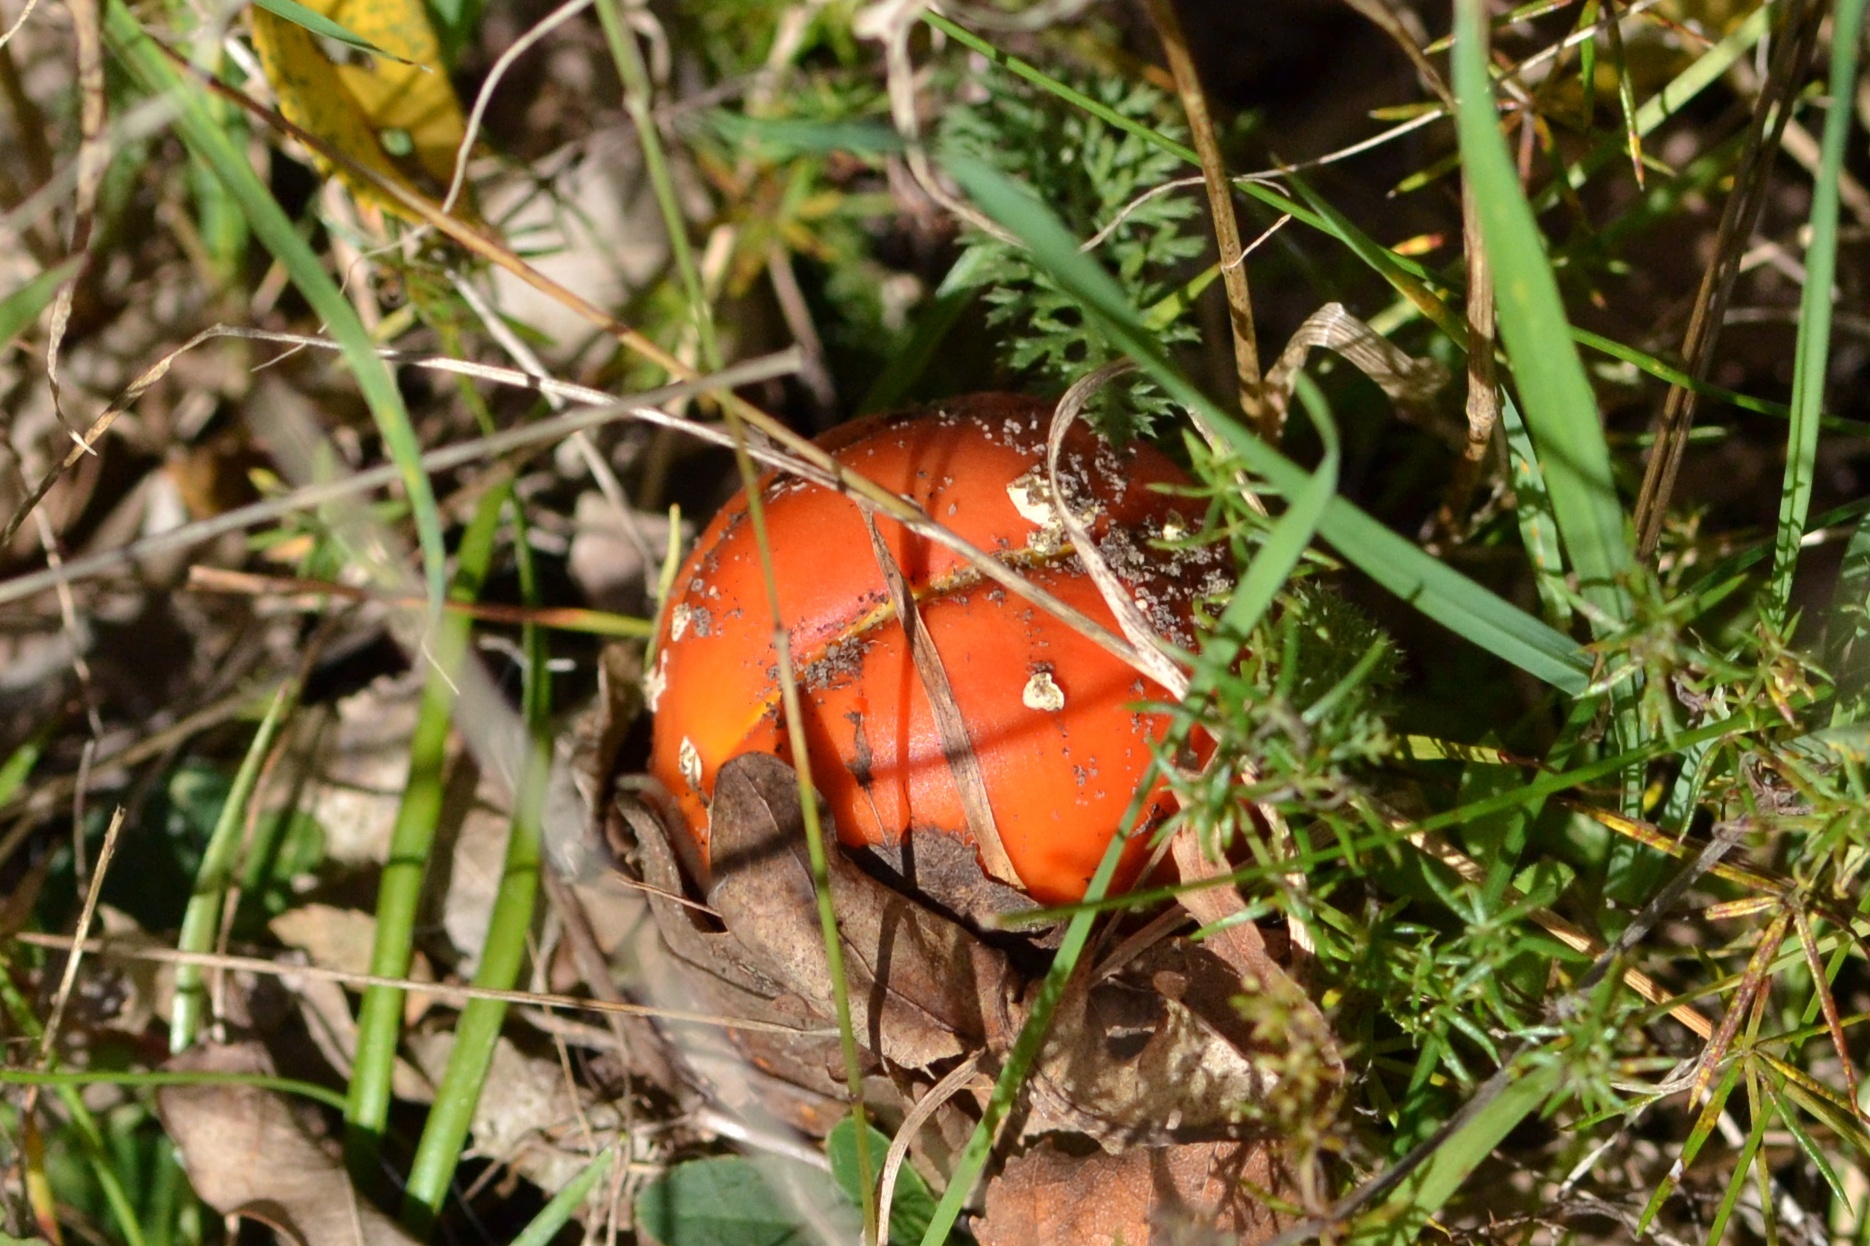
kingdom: Fungi
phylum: Basidiomycota
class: Agaricomycetes
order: Agaricales
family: Amanitaceae
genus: Amanita
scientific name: Amanita muscaria
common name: Fly agaric
